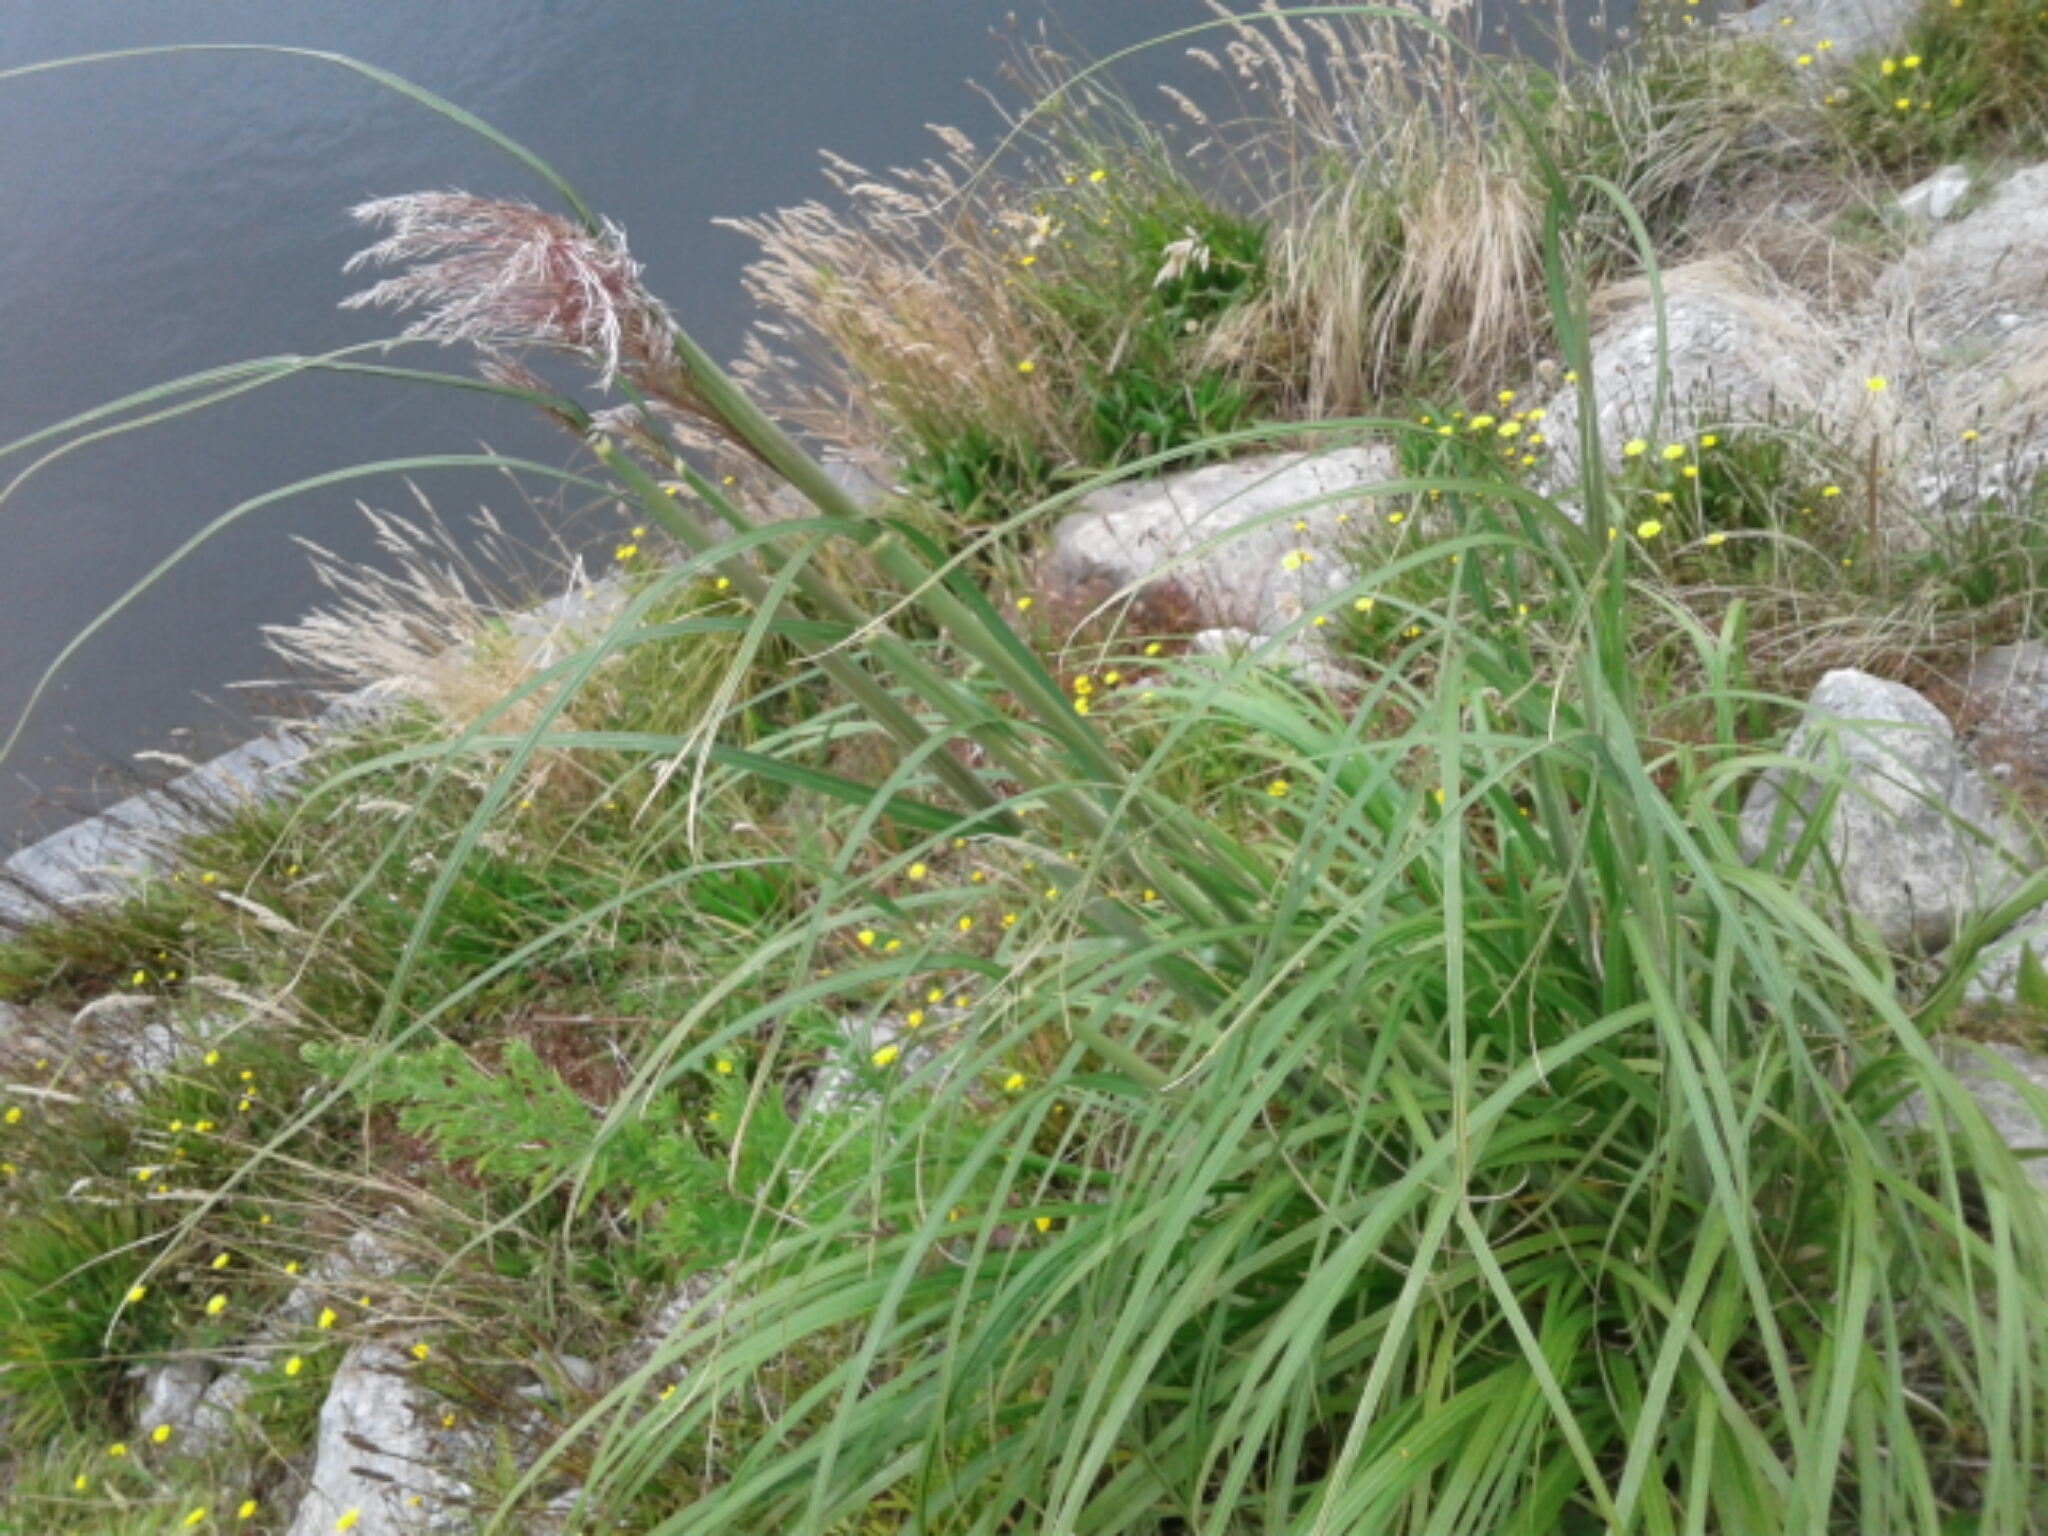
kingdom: Plantae
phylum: Tracheophyta
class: Liliopsida
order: Poales
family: Poaceae
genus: Austroderia
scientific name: Austroderia
